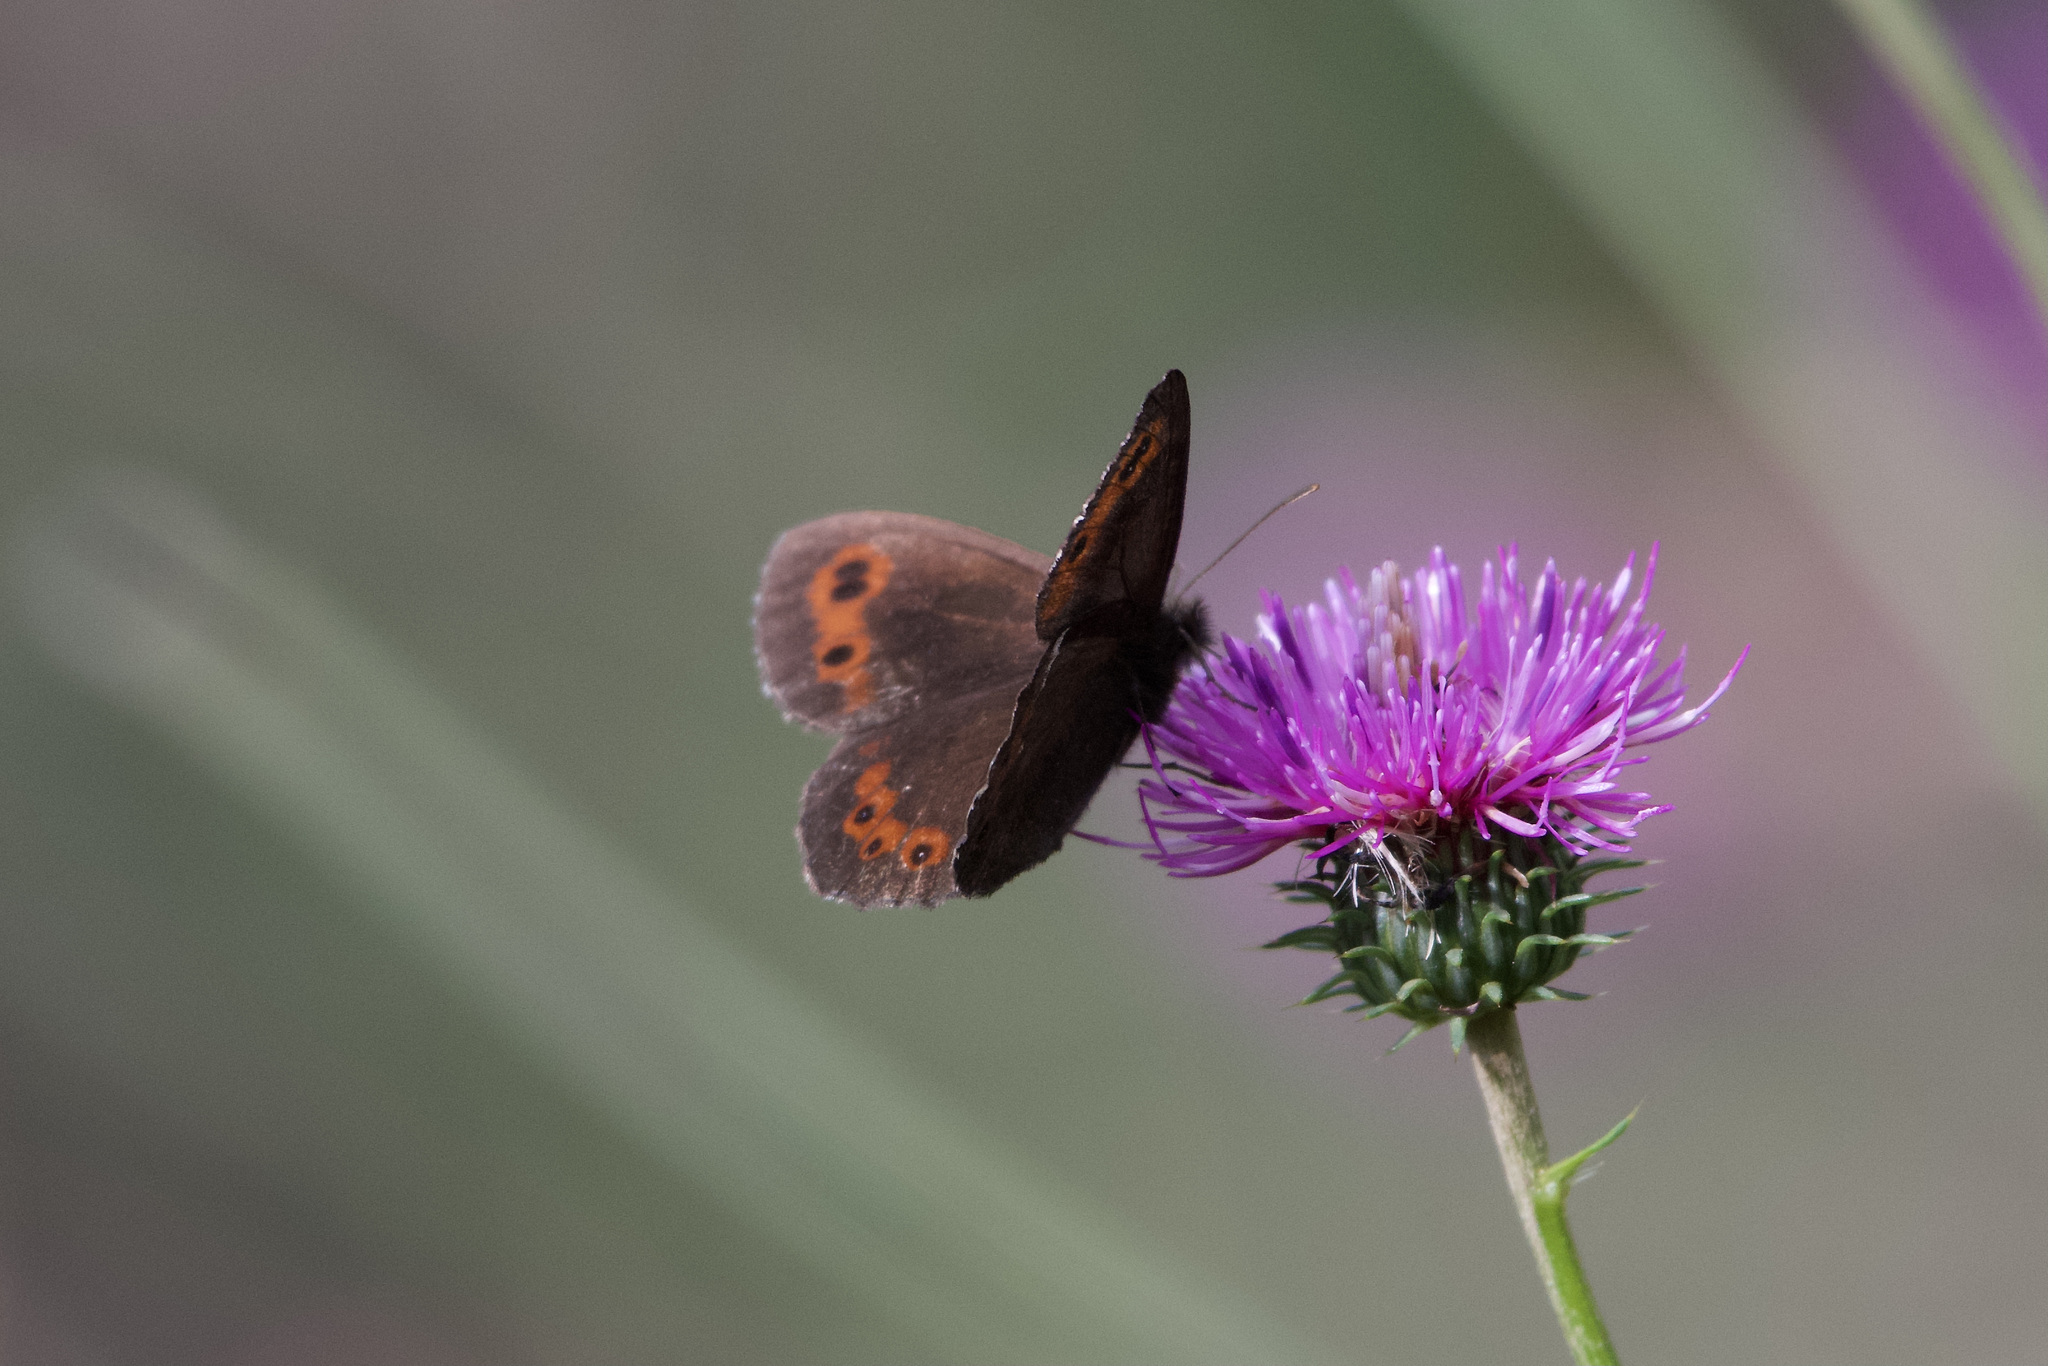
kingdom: Animalia
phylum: Arthropoda
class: Insecta
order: Lepidoptera
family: Nymphalidae
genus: Erebia
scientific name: Erebia ligea
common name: Arran brown
